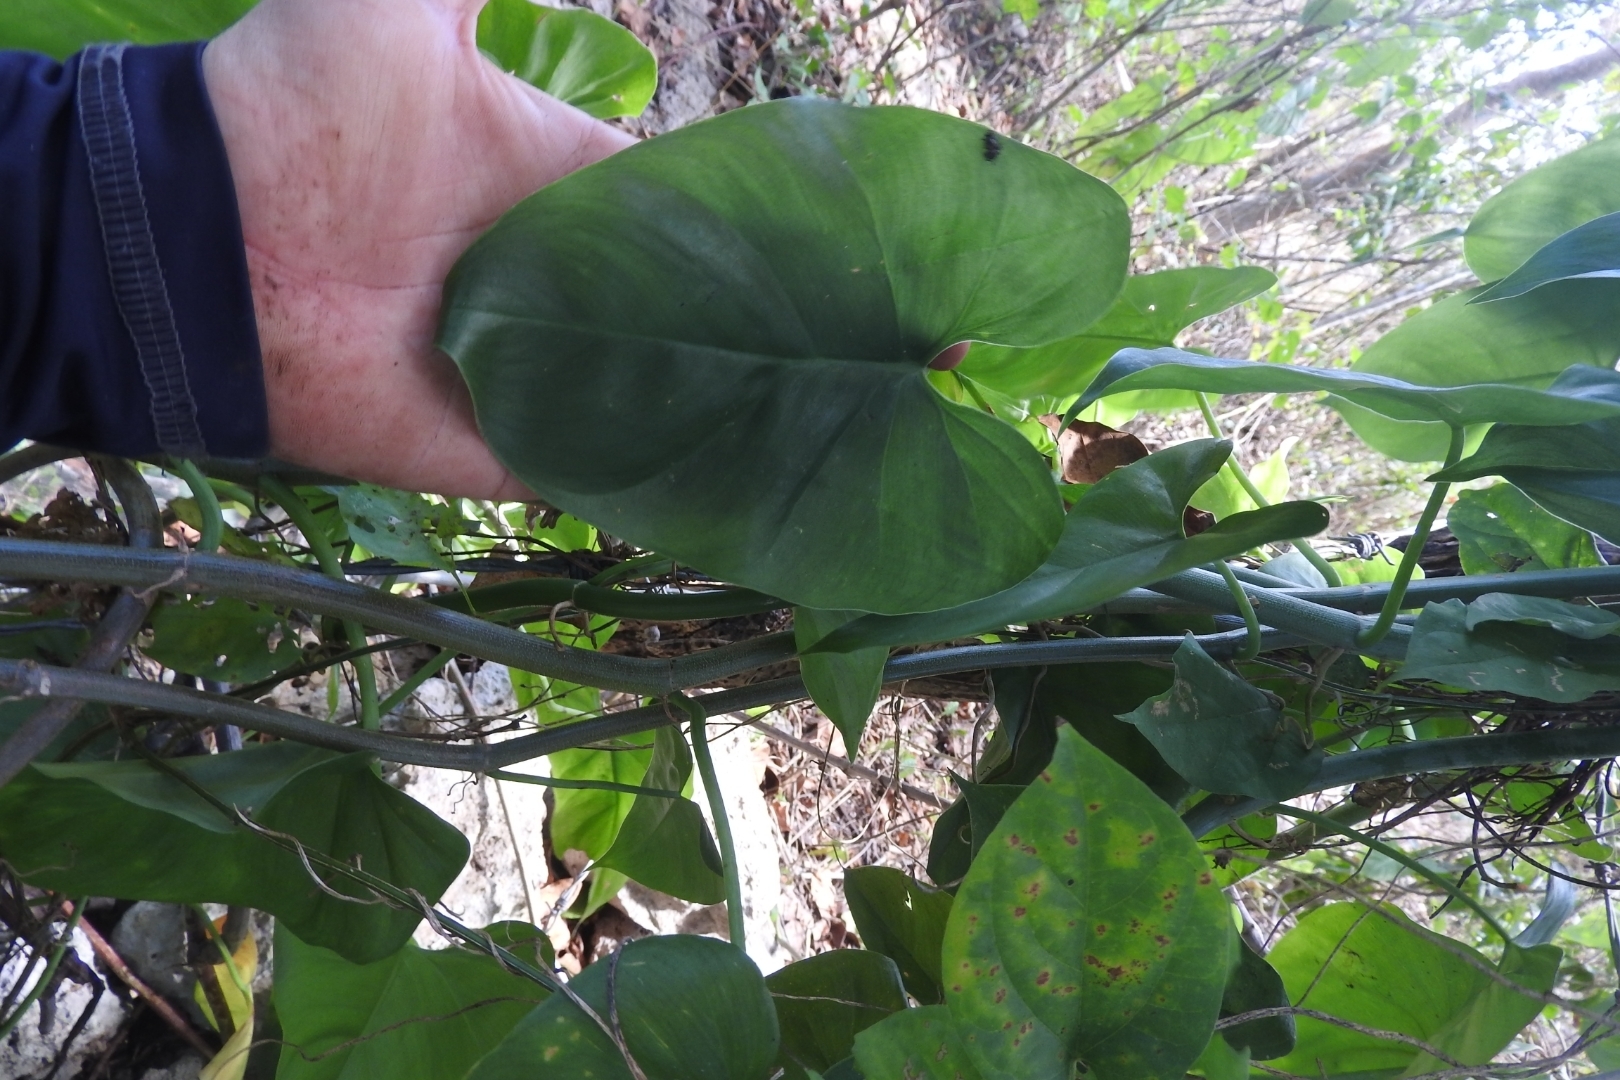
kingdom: Plantae
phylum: Tracheophyta
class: Liliopsida
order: Alismatales
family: Araceae
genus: Philodendron
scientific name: Philodendron hederaceum
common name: Vilevine
